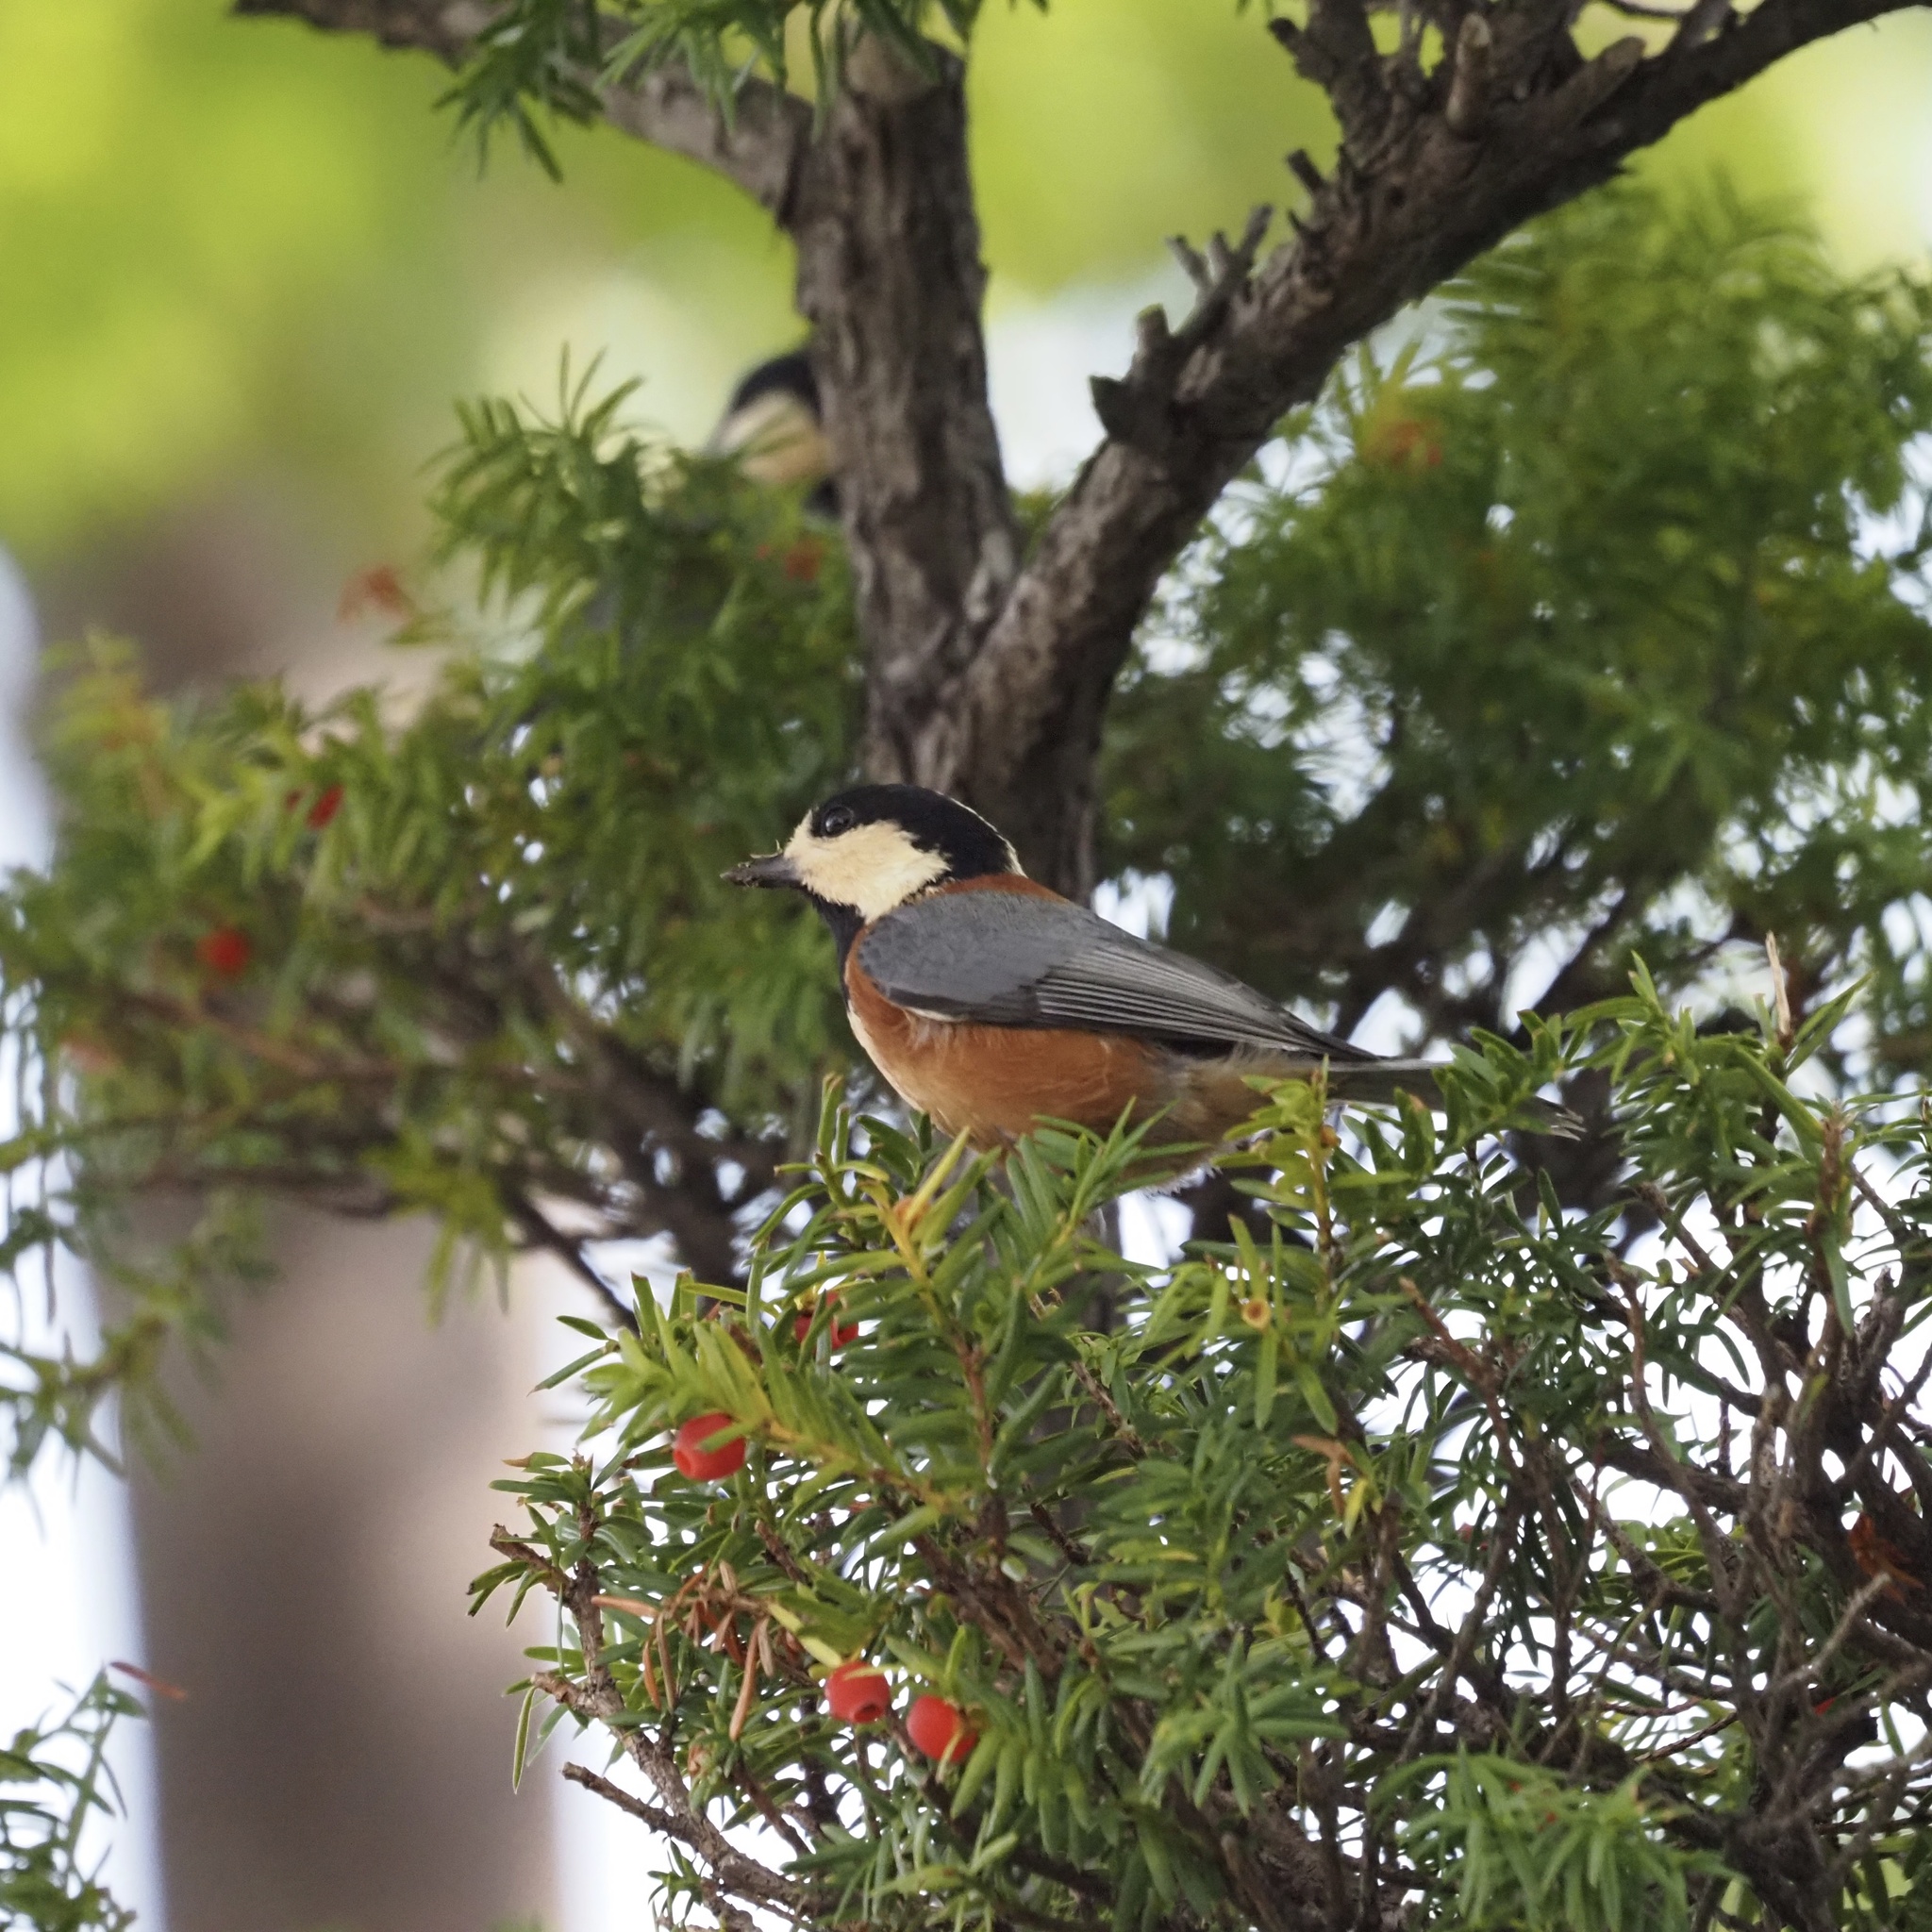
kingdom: Animalia
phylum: Chordata
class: Aves
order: Passeriformes
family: Paridae
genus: Poecile
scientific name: Poecile varius
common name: Varied tit
